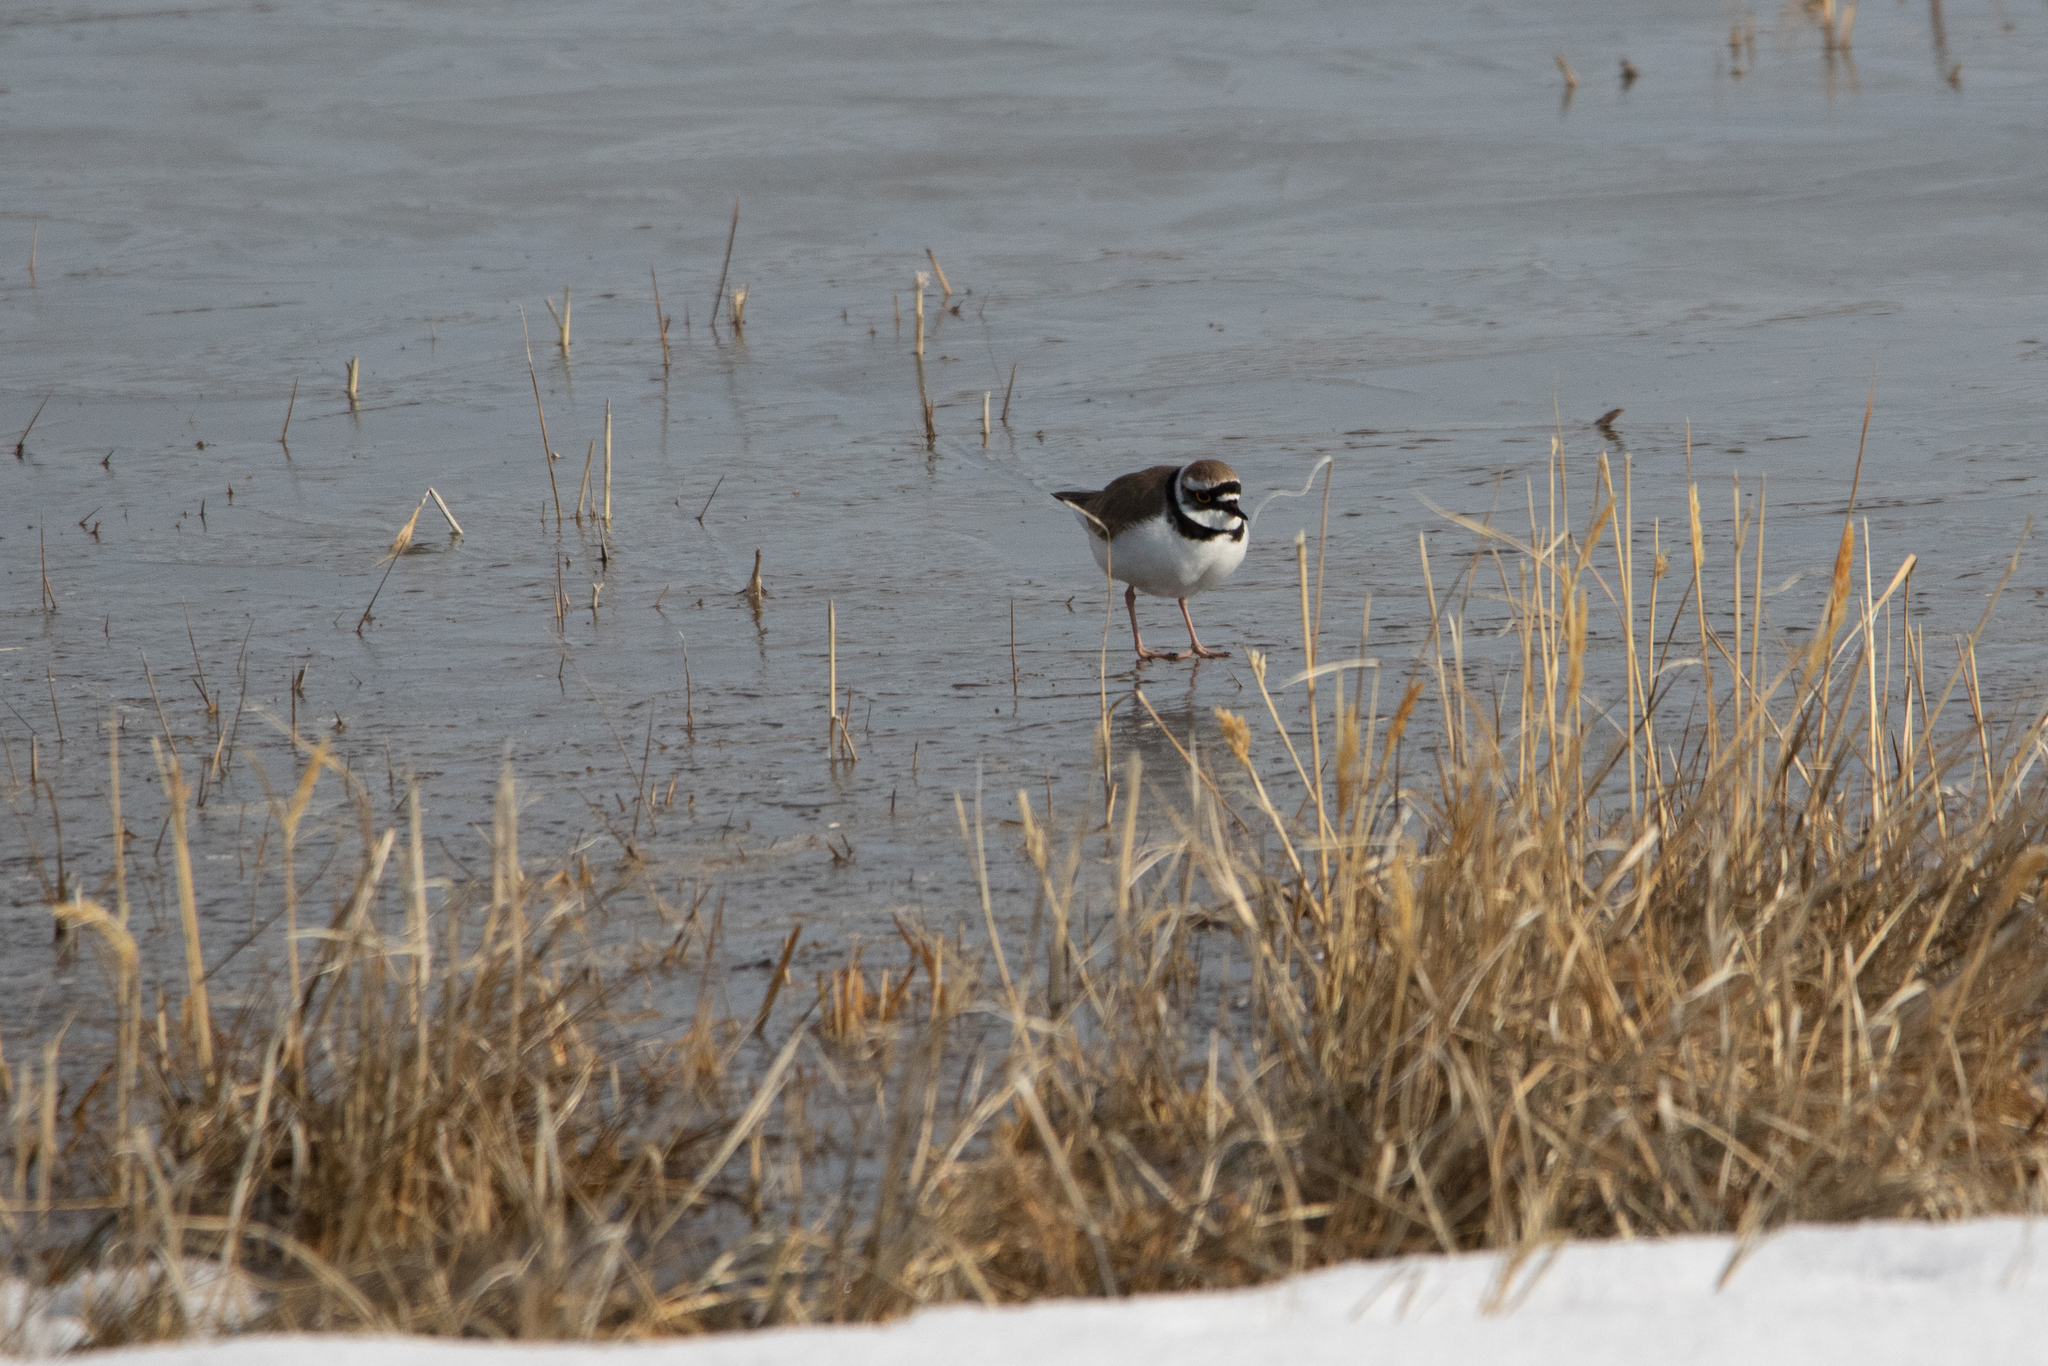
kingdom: Animalia
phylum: Chordata
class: Aves
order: Charadriiformes
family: Charadriidae
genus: Charadrius
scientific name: Charadrius dubius
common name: Little ringed plover
